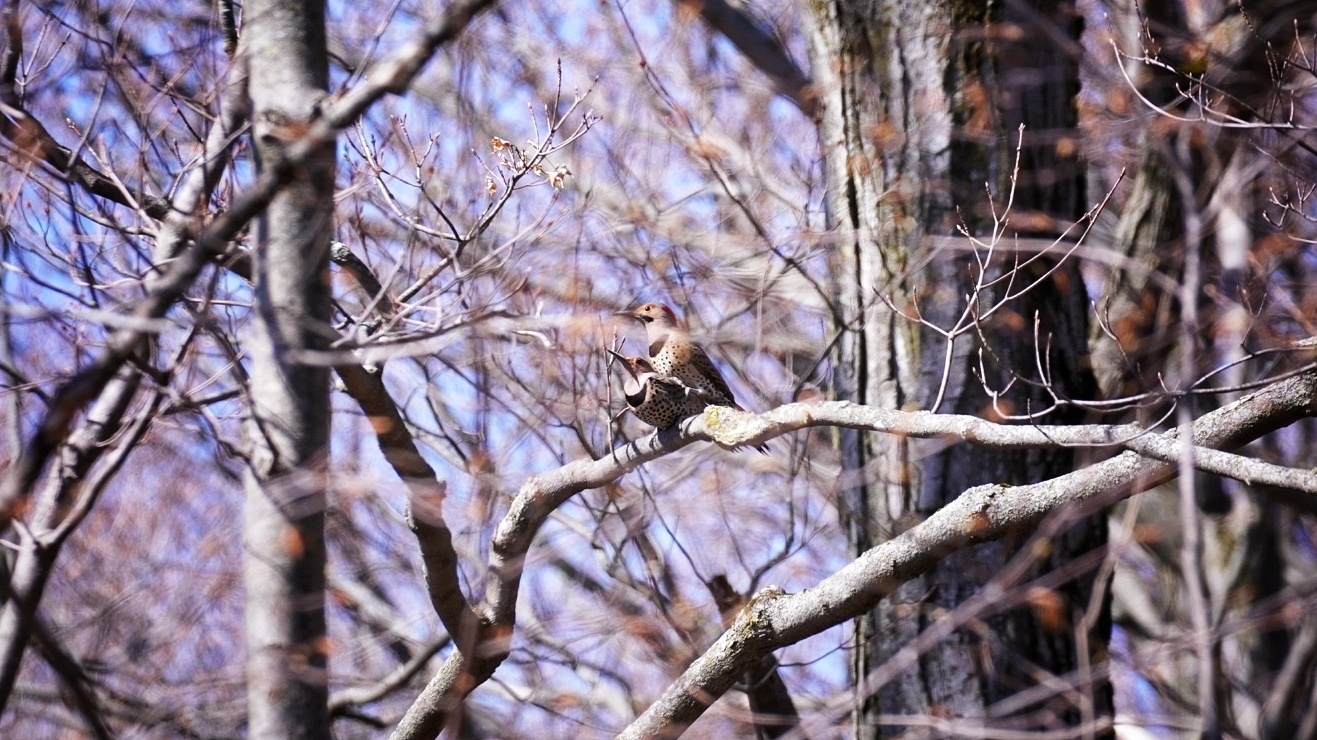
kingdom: Animalia
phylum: Chordata
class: Aves
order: Piciformes
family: Picidae
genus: Colaptes
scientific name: Colaptes auratus
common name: Northern flicker
